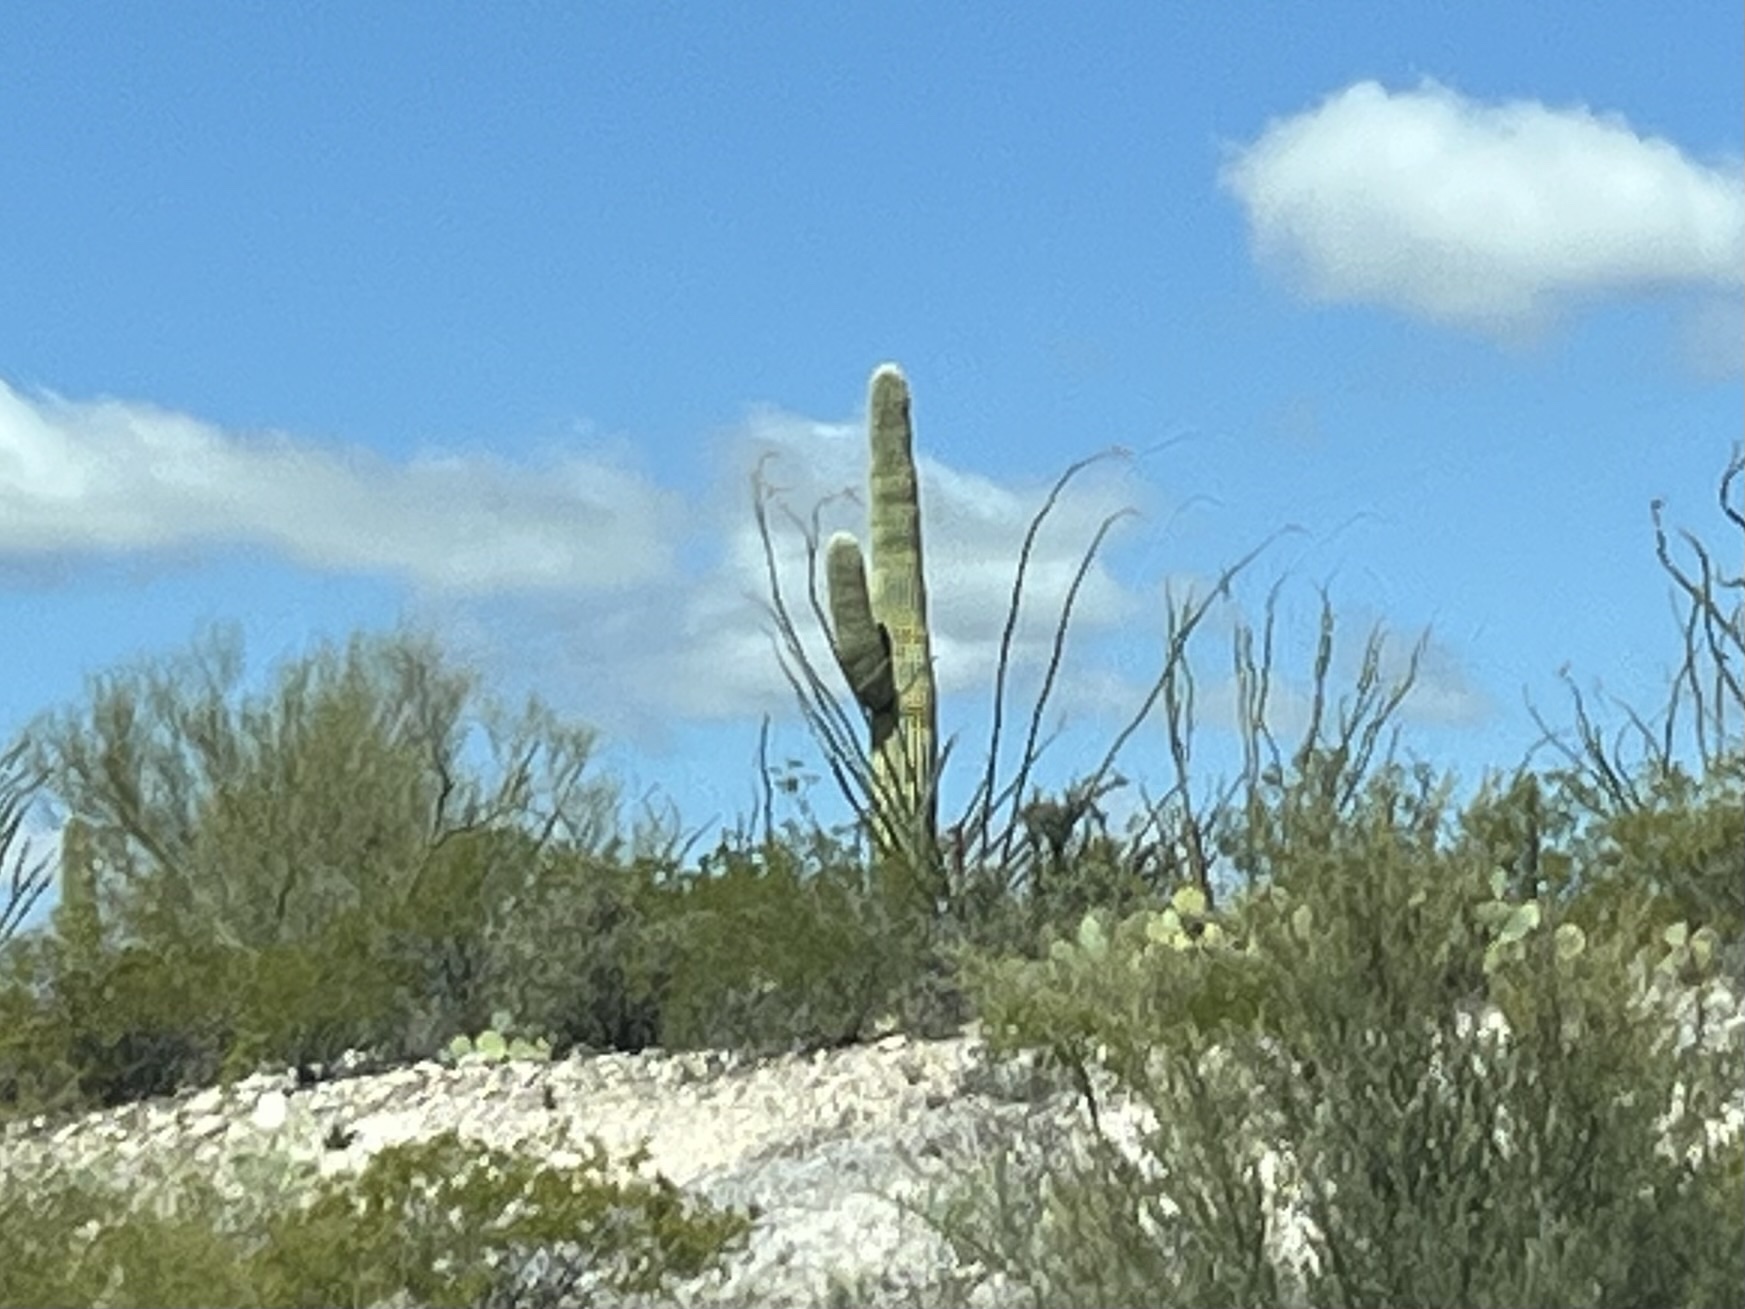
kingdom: Plantae
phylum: Tracheophyta
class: Magnoliopsida
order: Caryophyllales
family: Cactaceae
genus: Carnegiea
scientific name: Carnegiea gigantea
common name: Saguaro
